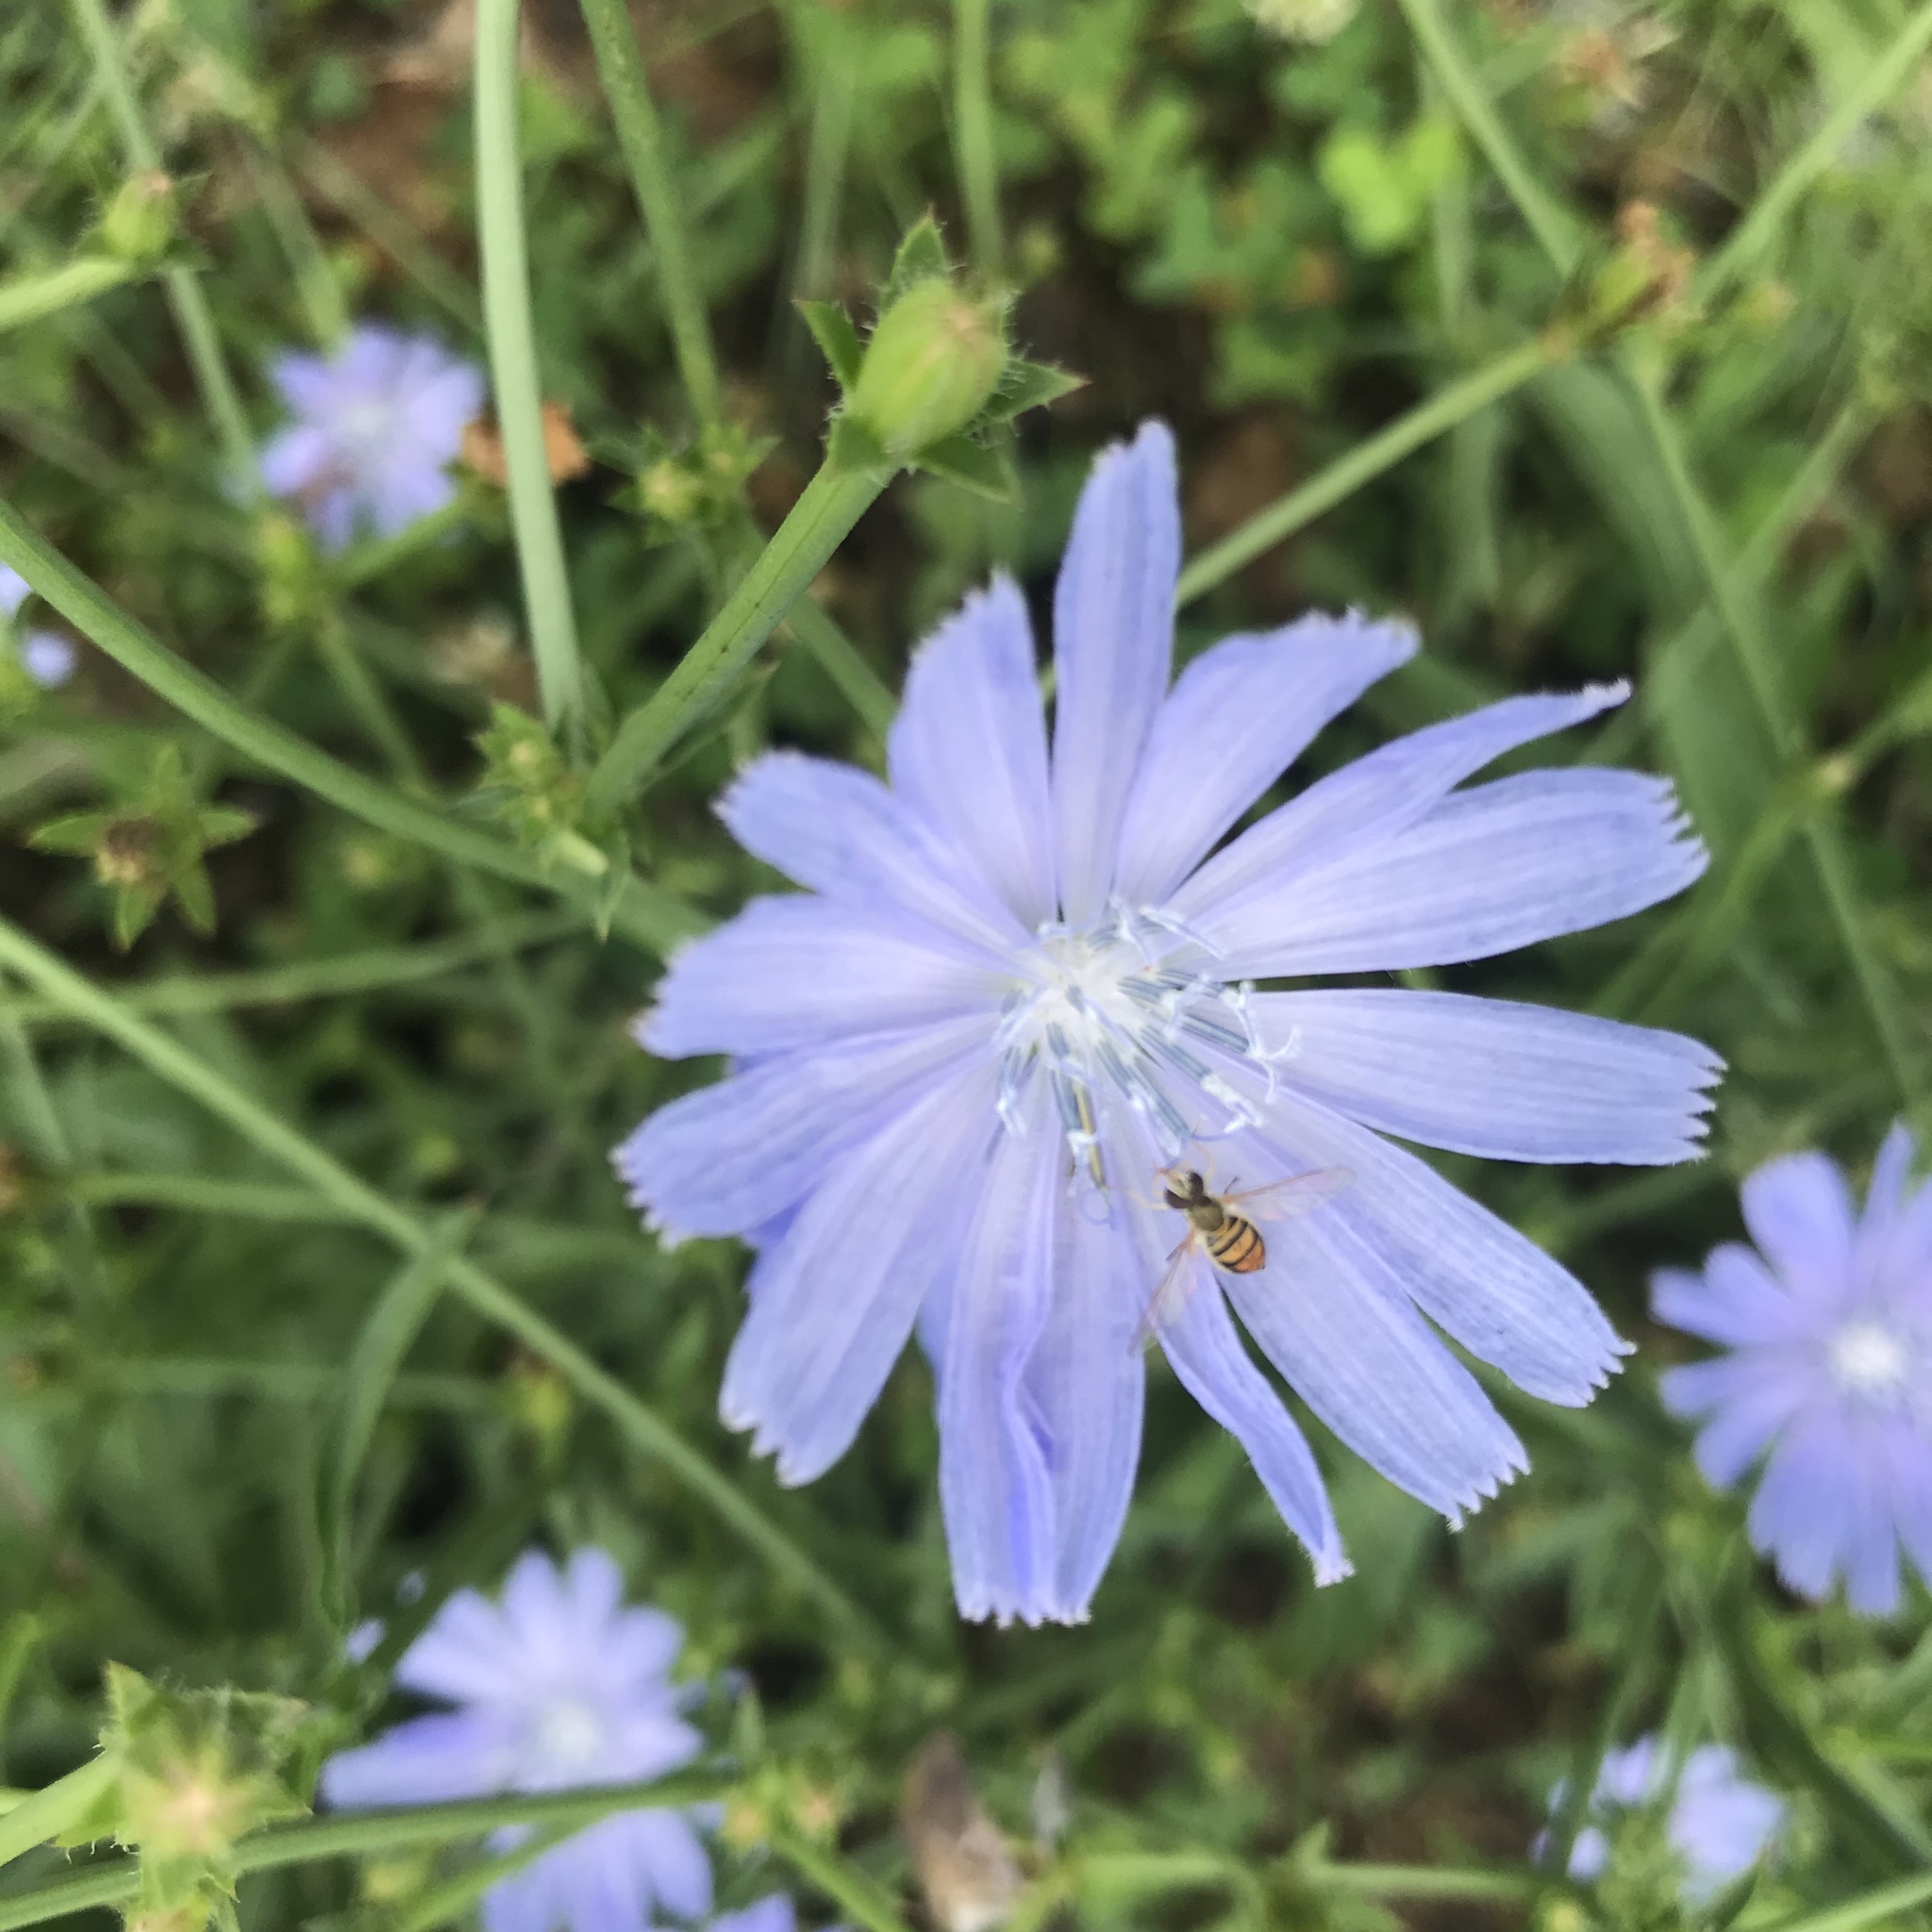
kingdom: Plantae
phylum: Tracheophyta
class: Magnoliopsida
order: Asterales
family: Asteraceae
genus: Cichorium
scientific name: Cichorium intybus
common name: Chicory
